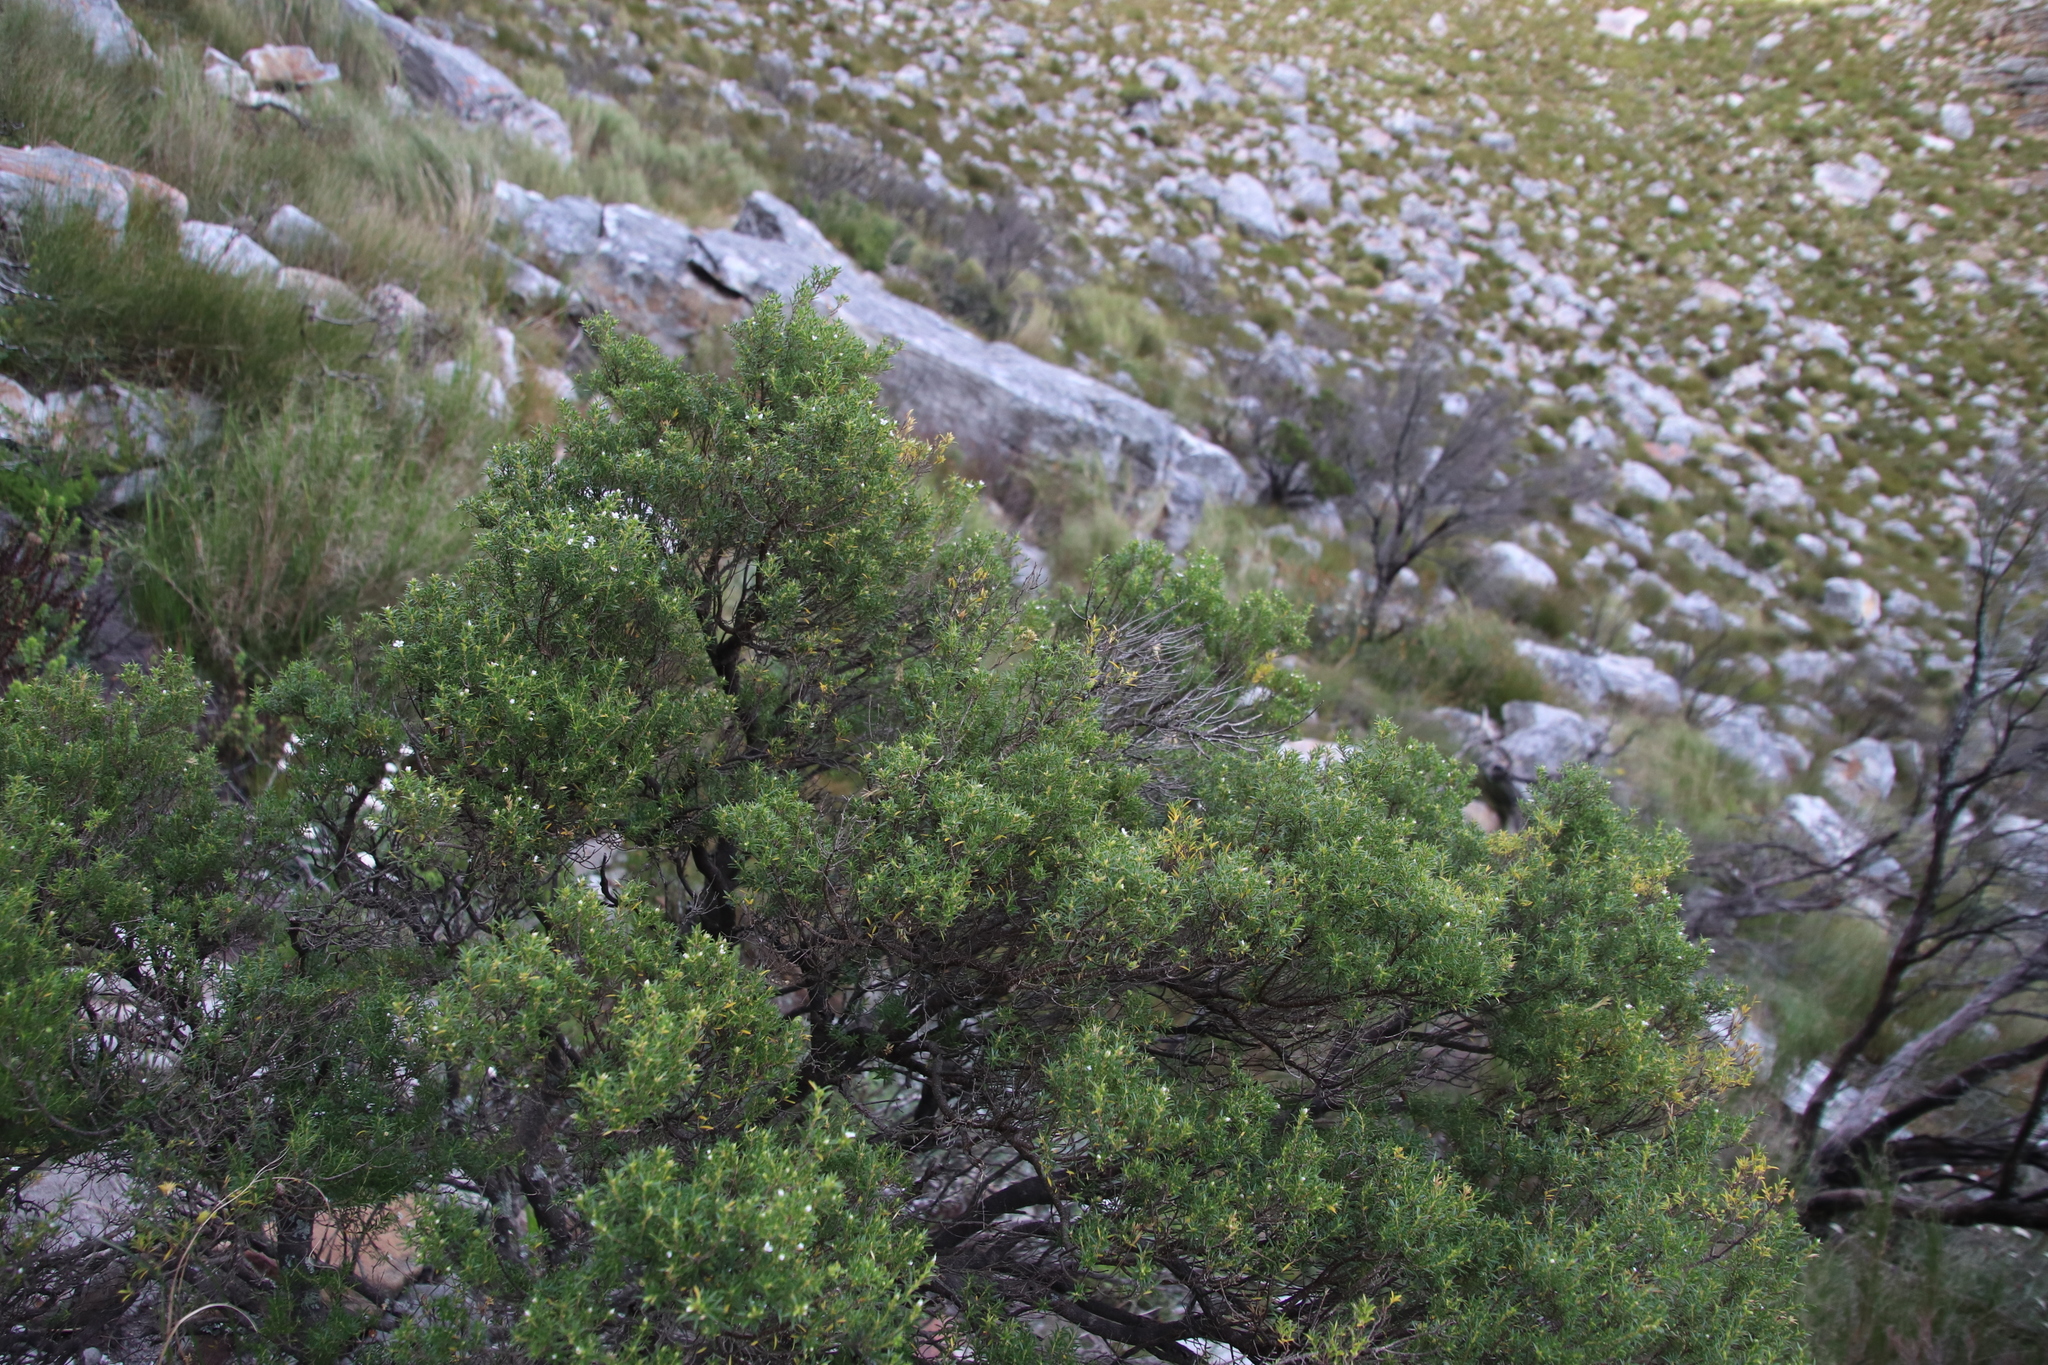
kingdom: Plantae
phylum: Tracheophyta
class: Magnoliopsida
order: Sapindales
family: Rutaceae
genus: Coleonema
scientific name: Coleonema album
